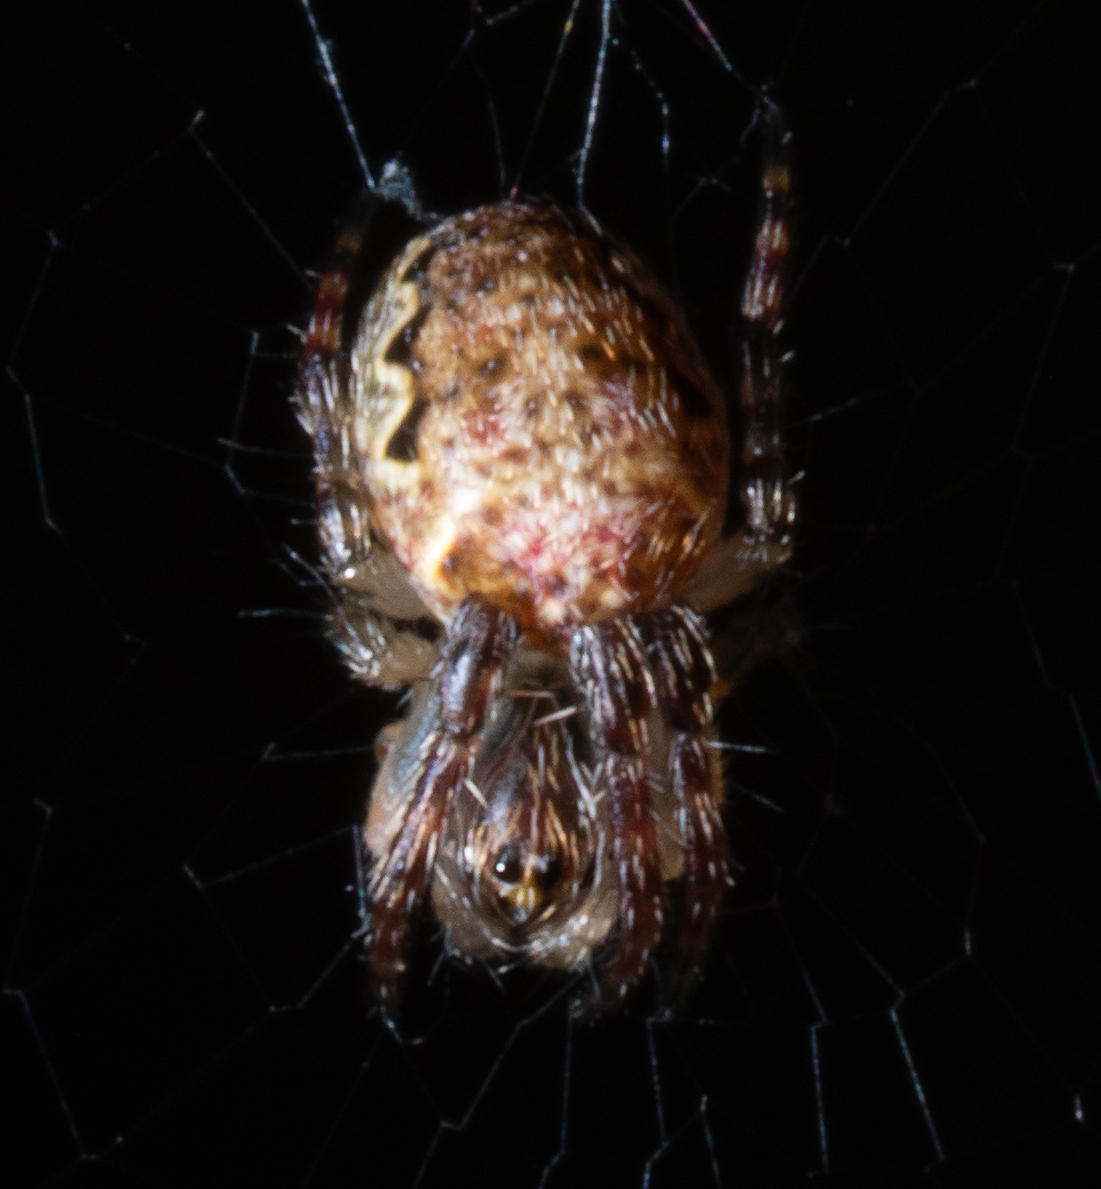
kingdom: Animalia
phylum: Arthropoda
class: Arachnida
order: Araneae
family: Araneidae
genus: Plebs
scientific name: Plebs eburnus
